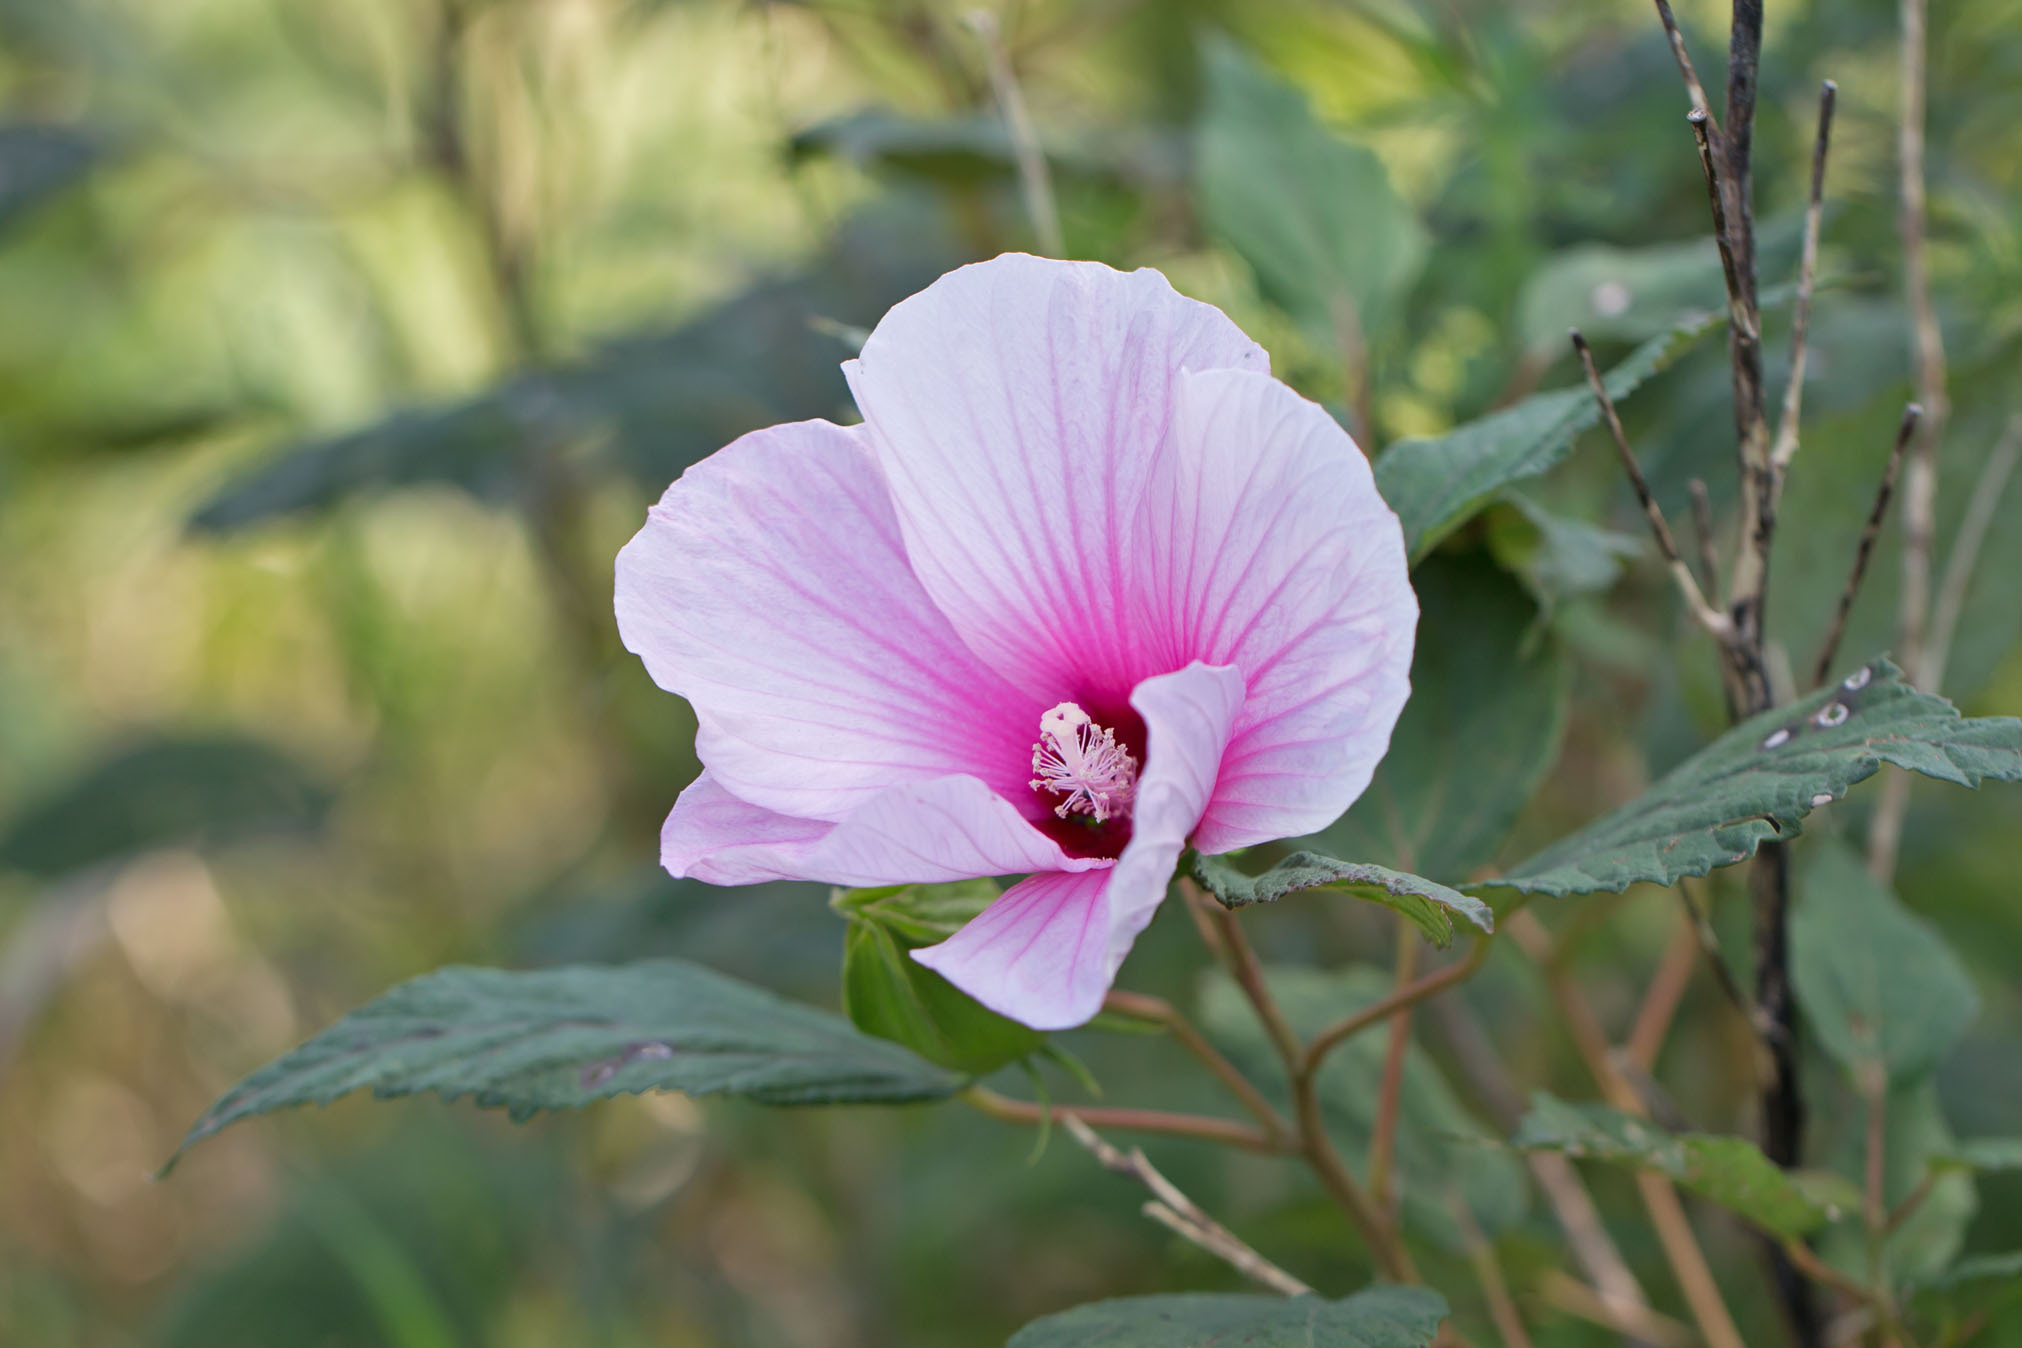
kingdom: Plantae
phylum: Tracheophyta
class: Magnoliopsida
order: Malvales
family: Malvaceae
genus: Hibiscus
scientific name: Hibiscus moscheutos
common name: Common rose-mallow
